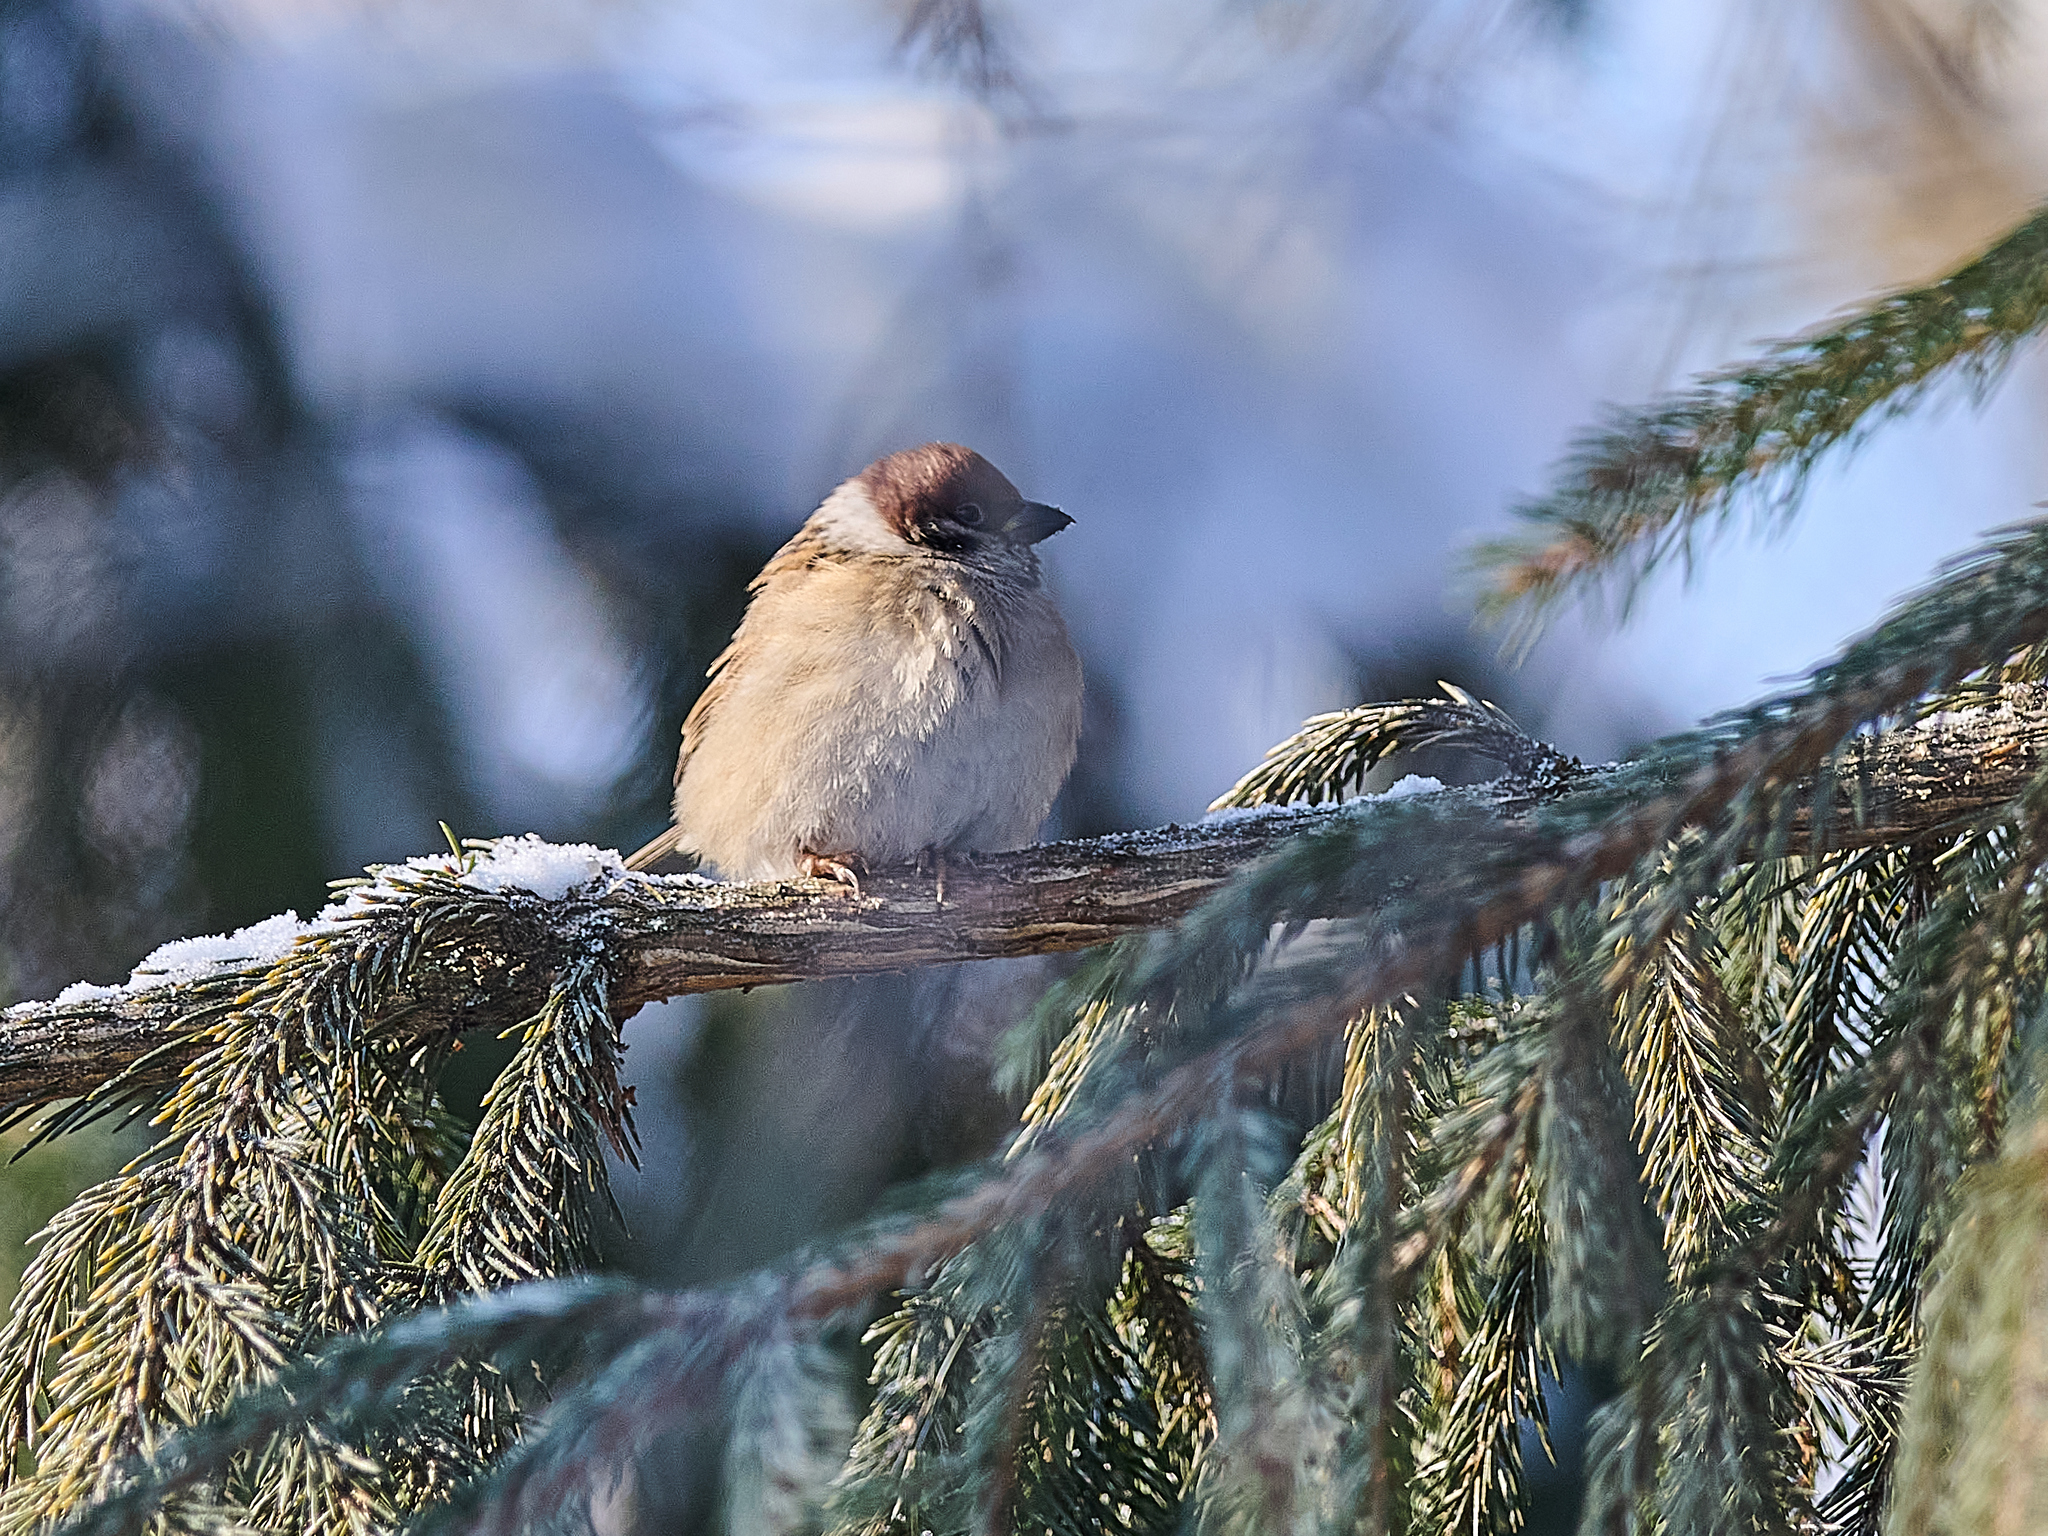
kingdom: Animalia
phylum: Chordata
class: Aves
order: Passeriformes
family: Passeridae
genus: Passer
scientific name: Passer montanus
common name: Eurasian tree sparrow
